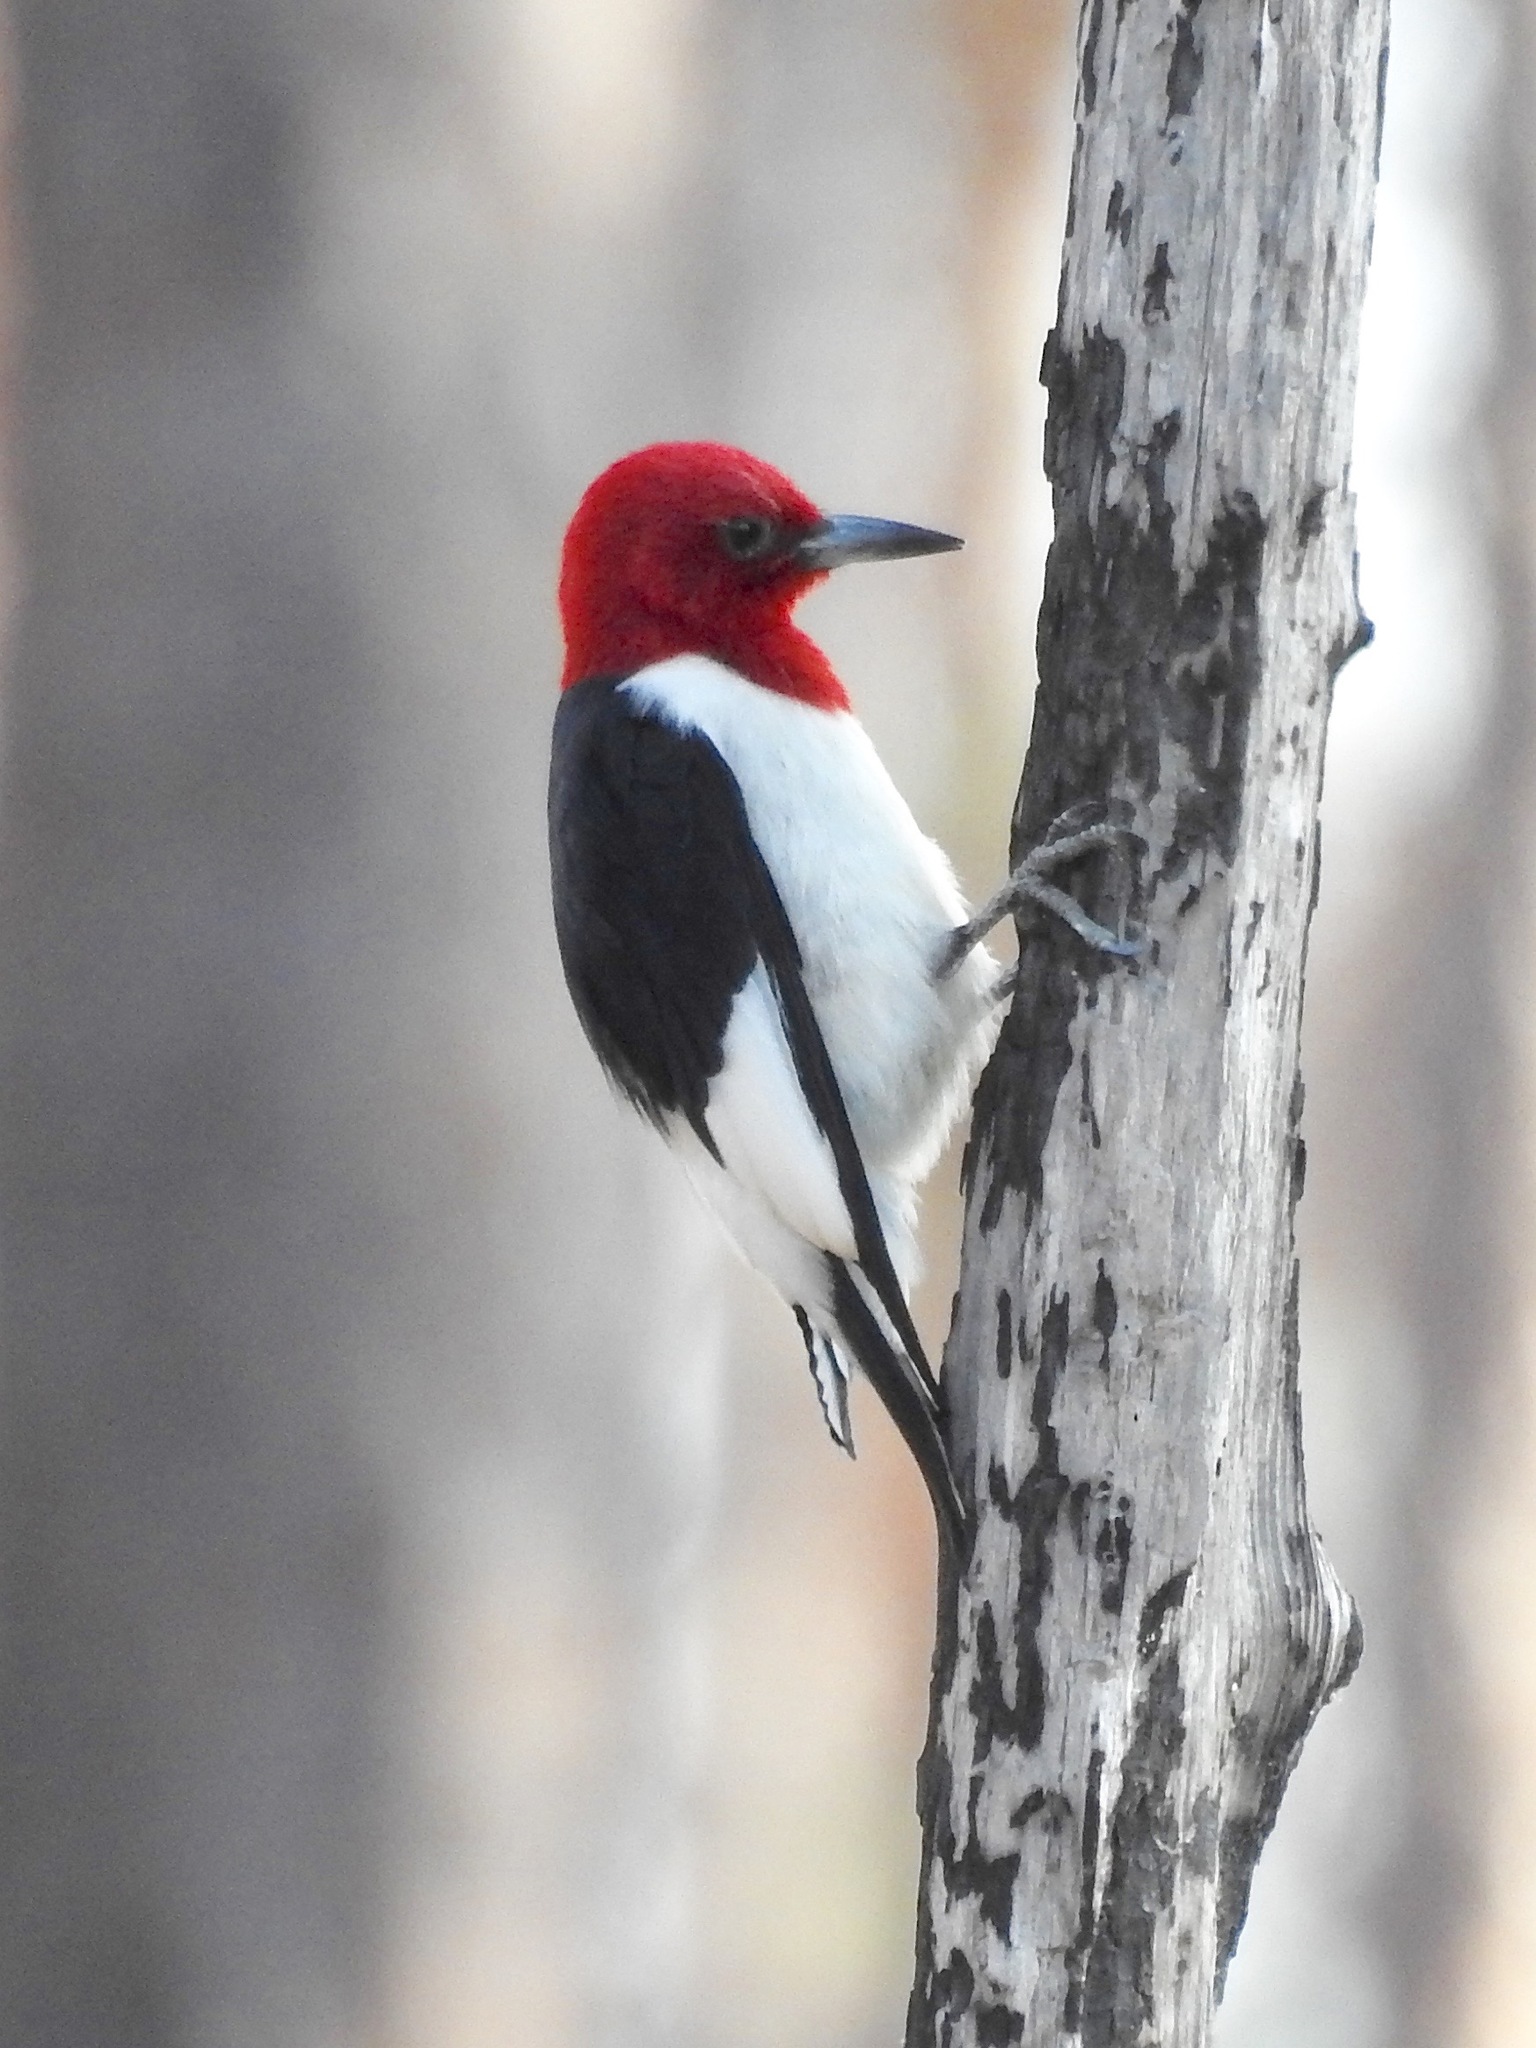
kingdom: Animalia
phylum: Chordata
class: Aves
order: Piciformes
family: Picidae
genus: Melanerpes
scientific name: Melanerpes erythrocephalus
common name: Red-headed woodpecker
